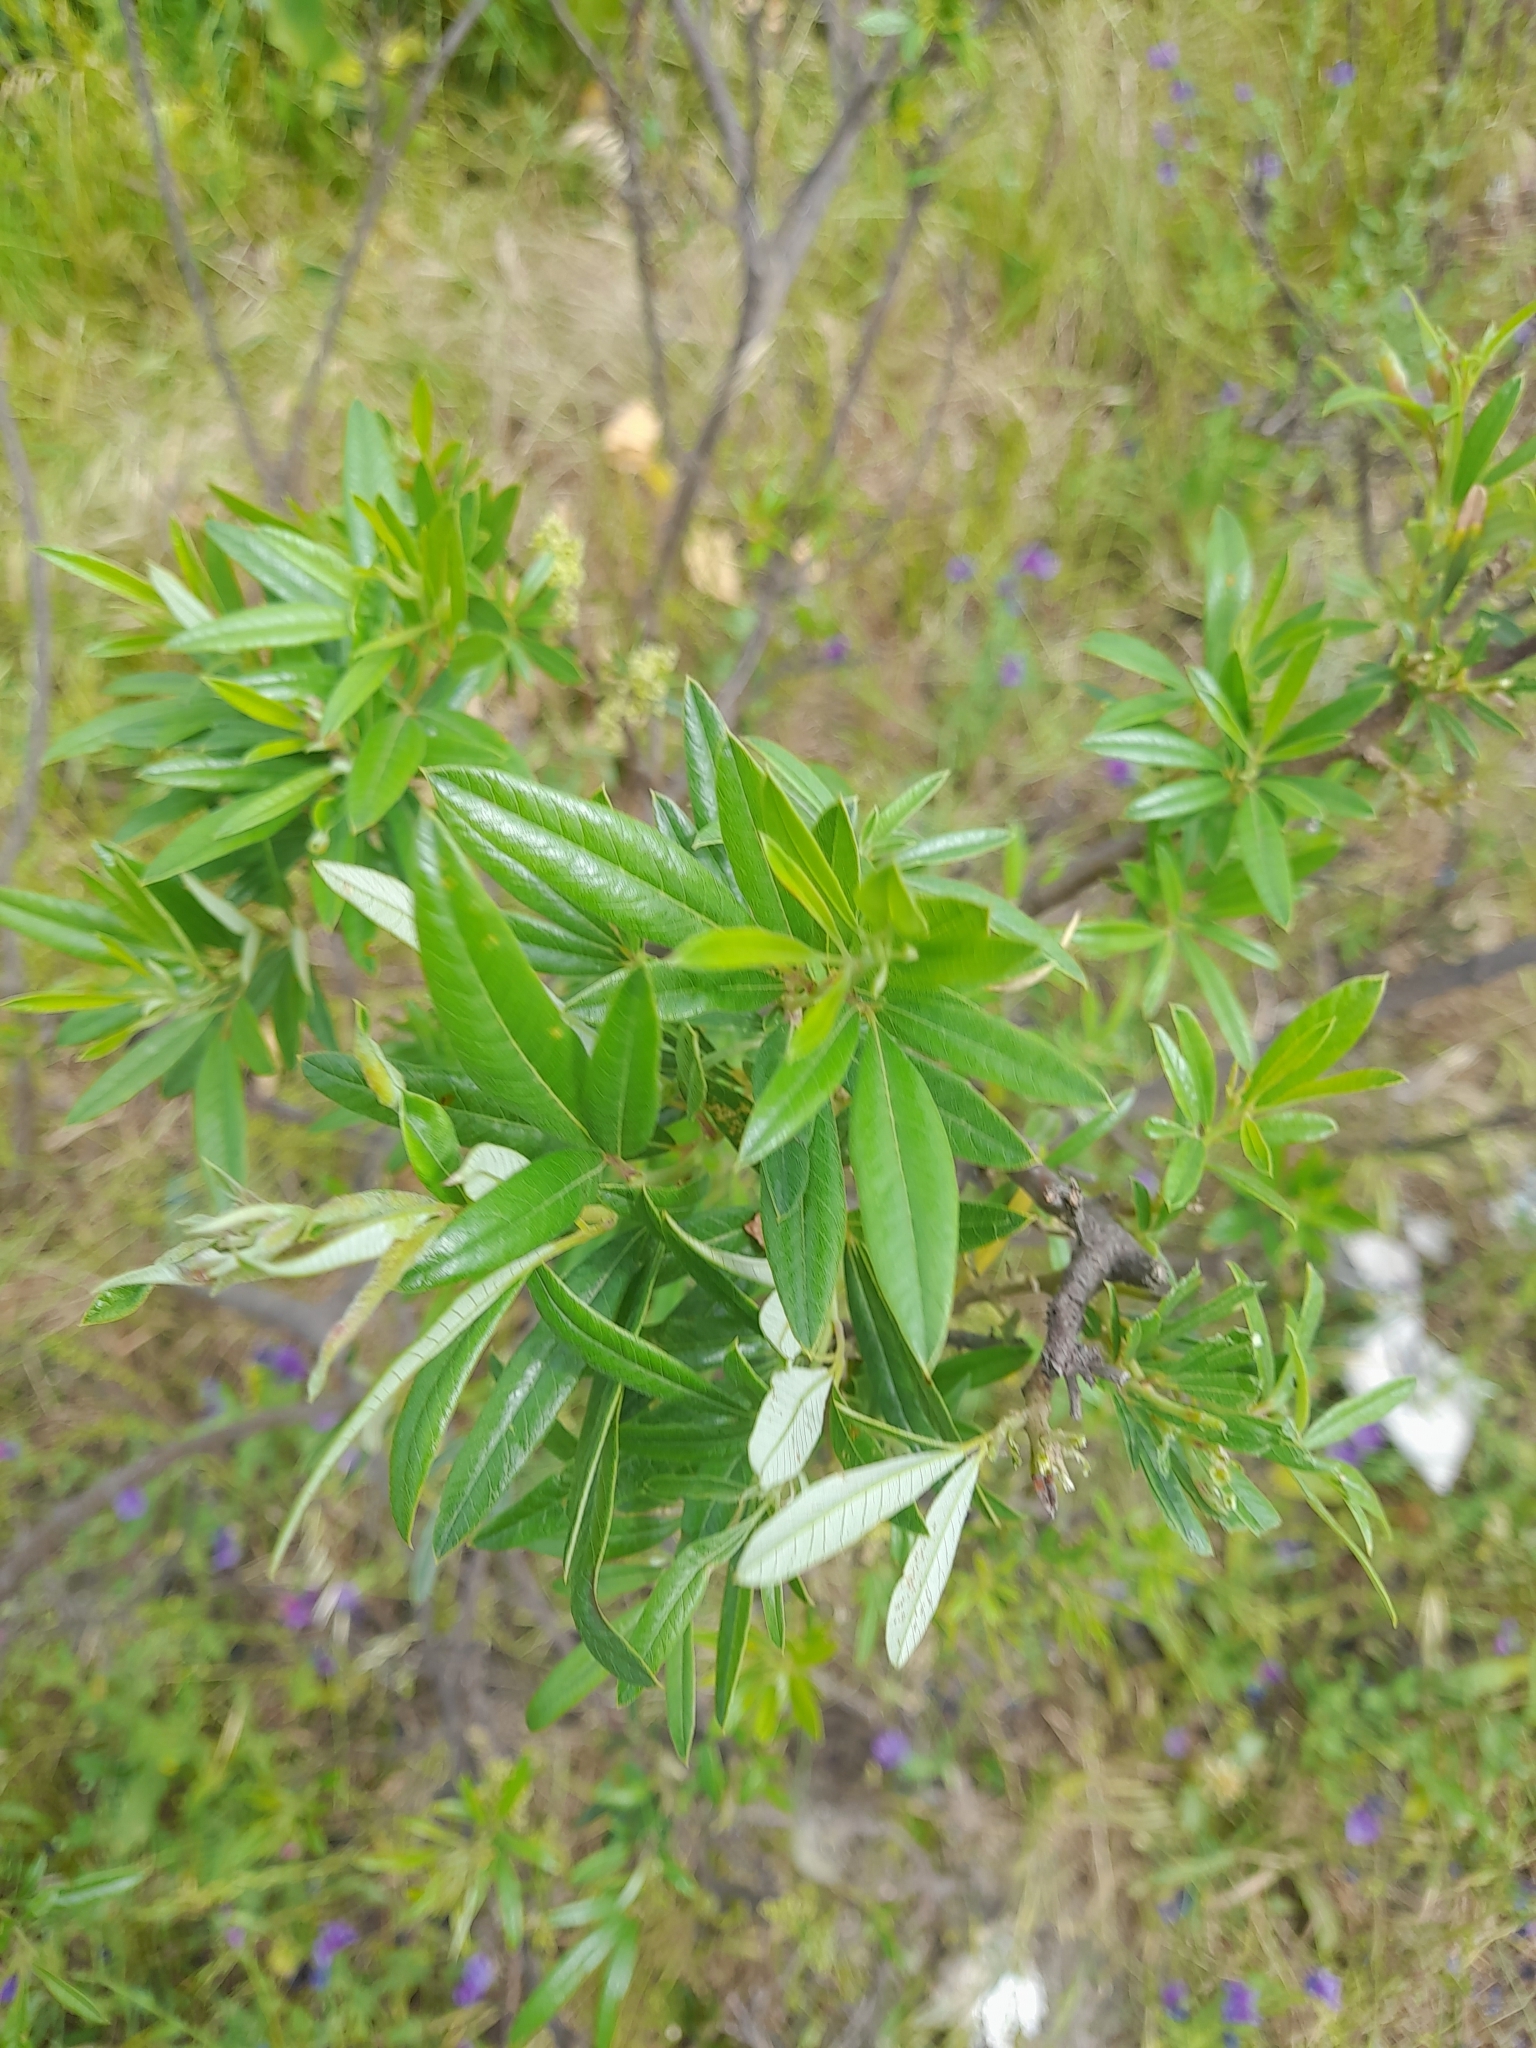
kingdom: Plantae
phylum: Tracheophyta
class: Magnoliopsida
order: Sapindales
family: Anacardiaceae
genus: Searsia
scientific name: Searsia angustifolia
